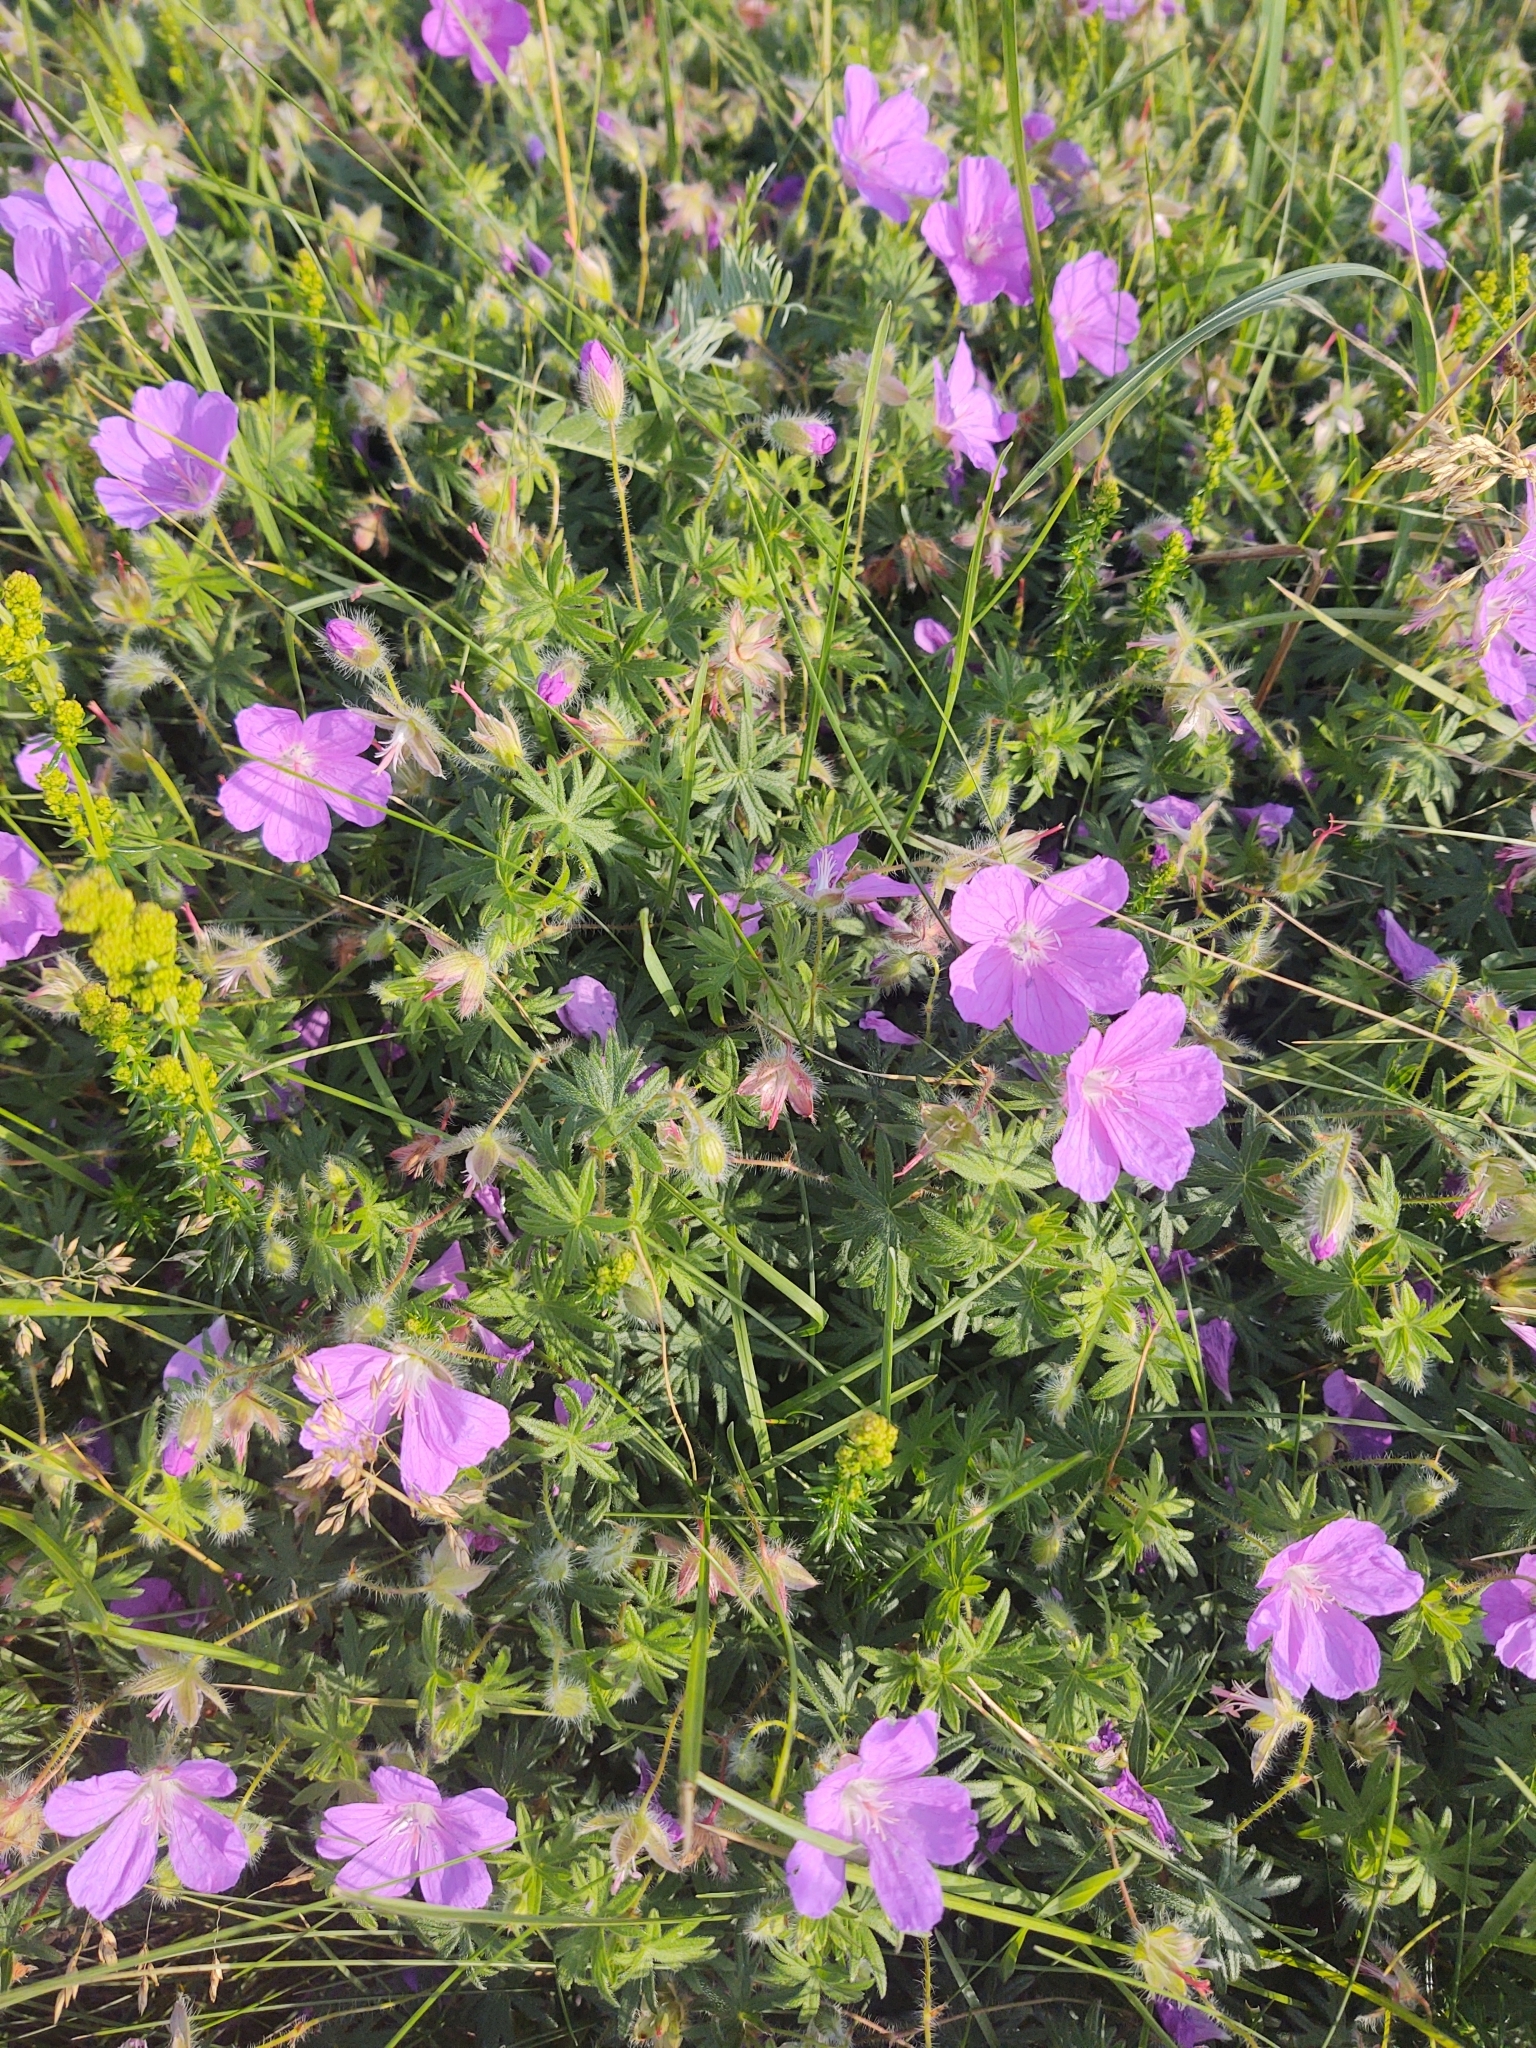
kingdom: Plantae
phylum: Tracheophyta
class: Magnoliopsida
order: Geraniales
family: Geraniaceae
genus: Geranium
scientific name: Geranium sanguineum
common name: Bloody crane's-bill
